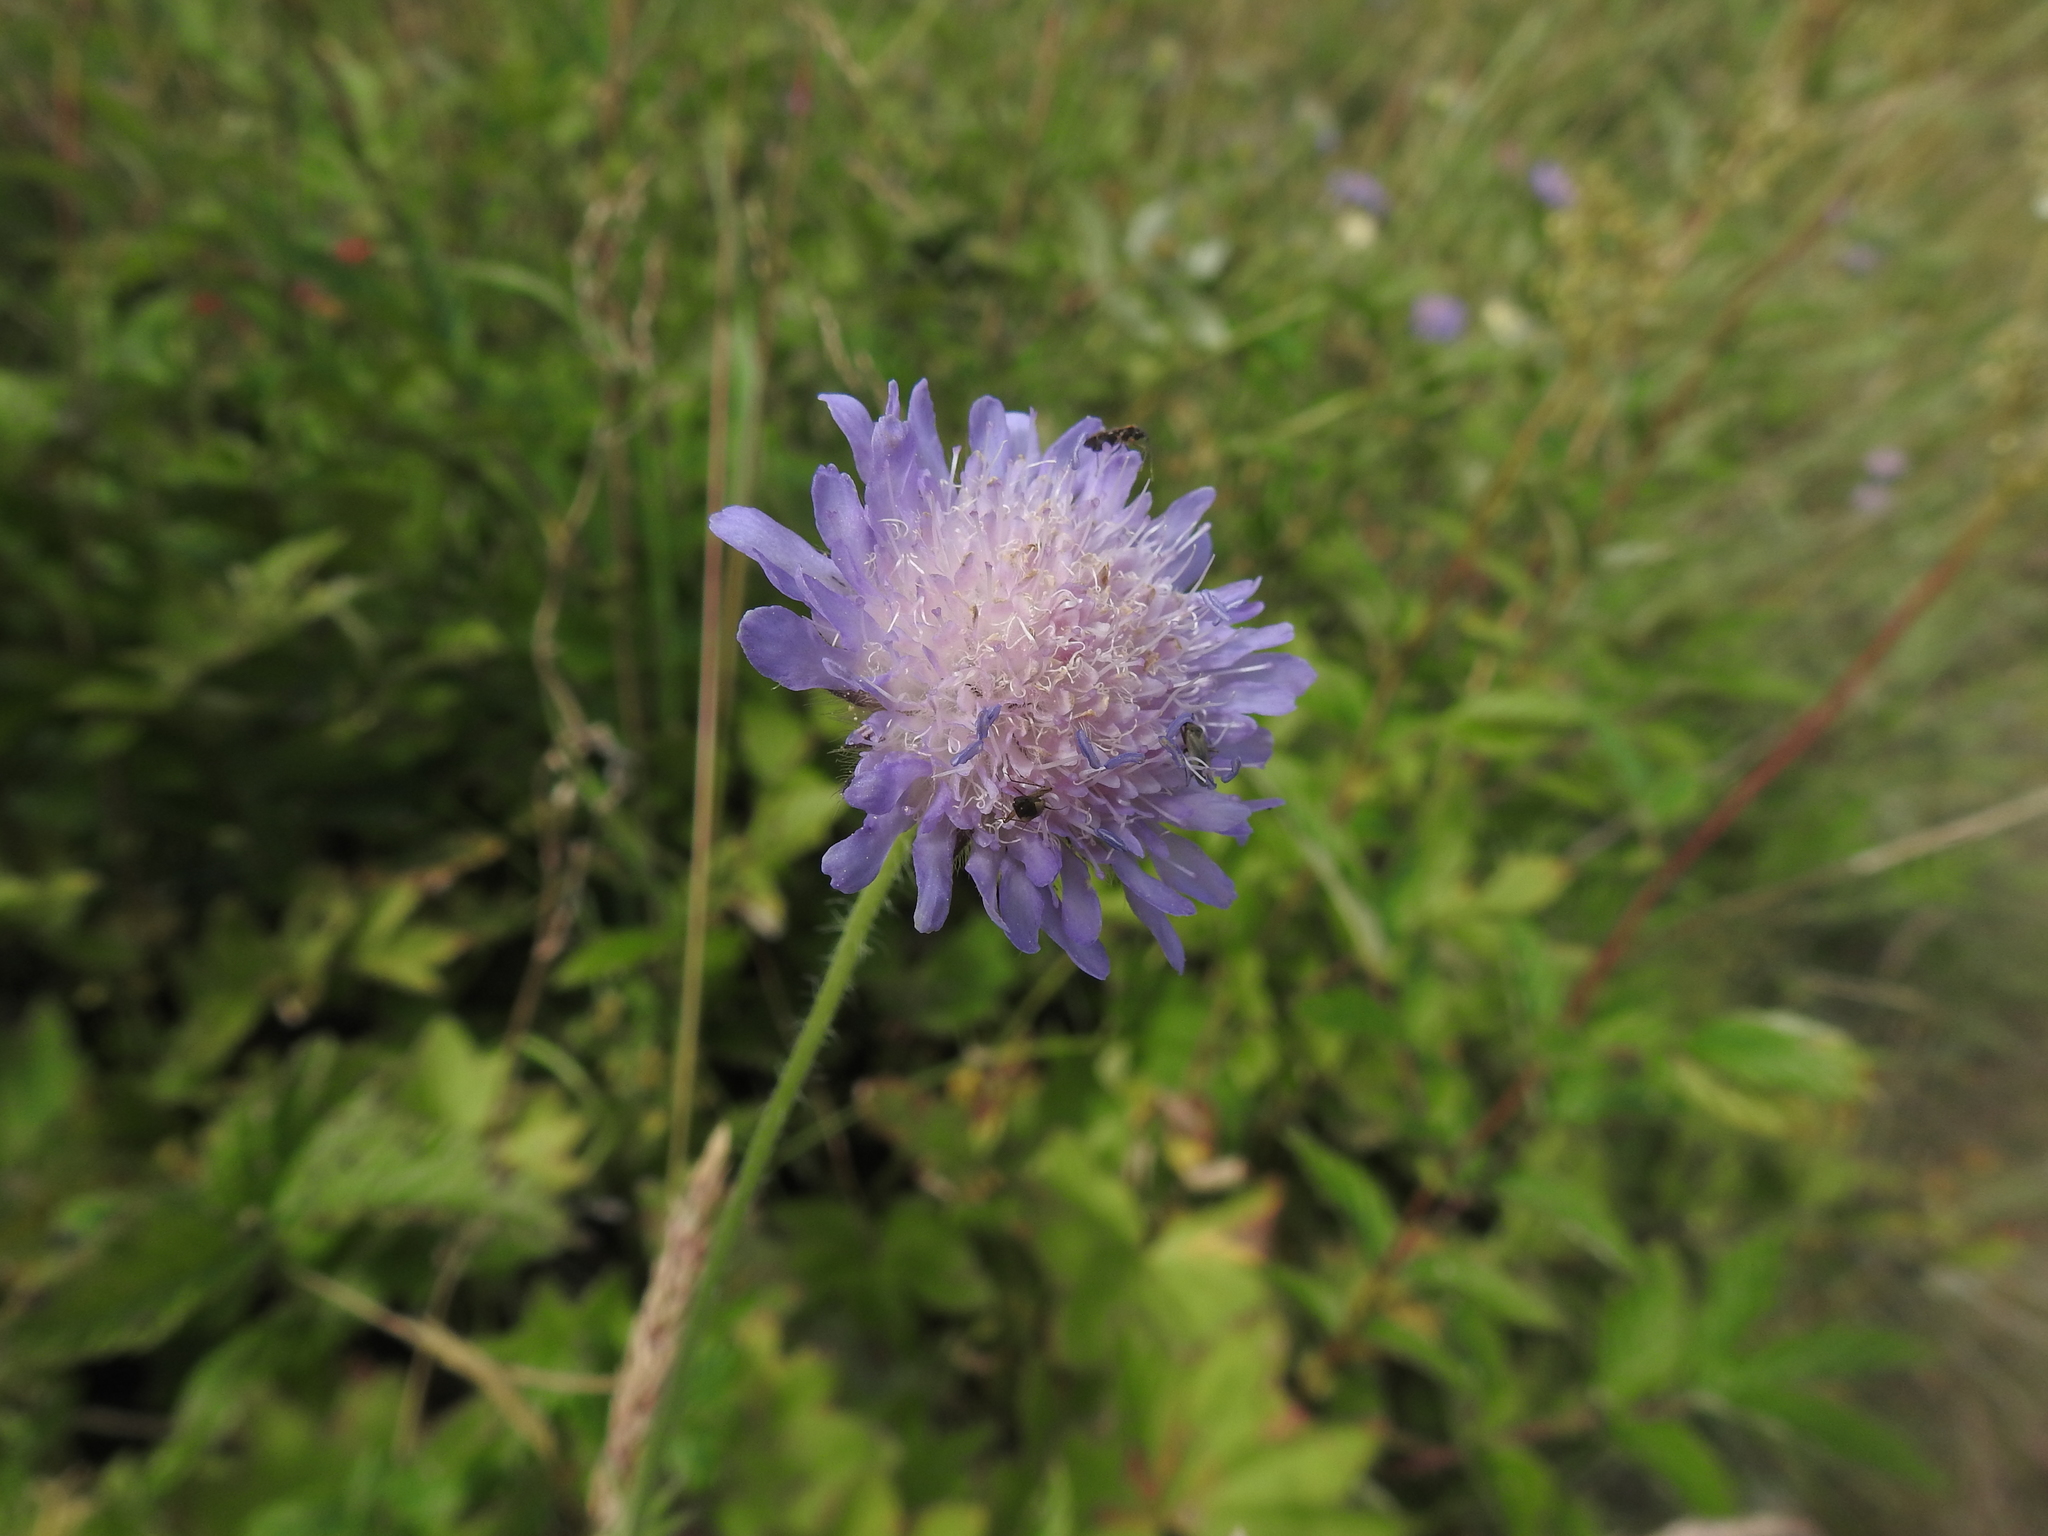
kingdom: Plantae
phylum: Tracheophyta
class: Magnoliopsida
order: Dipsacales
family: Caprifoliaceae
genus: Knautia
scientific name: Knautia arvensis
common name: Field scabiosa
